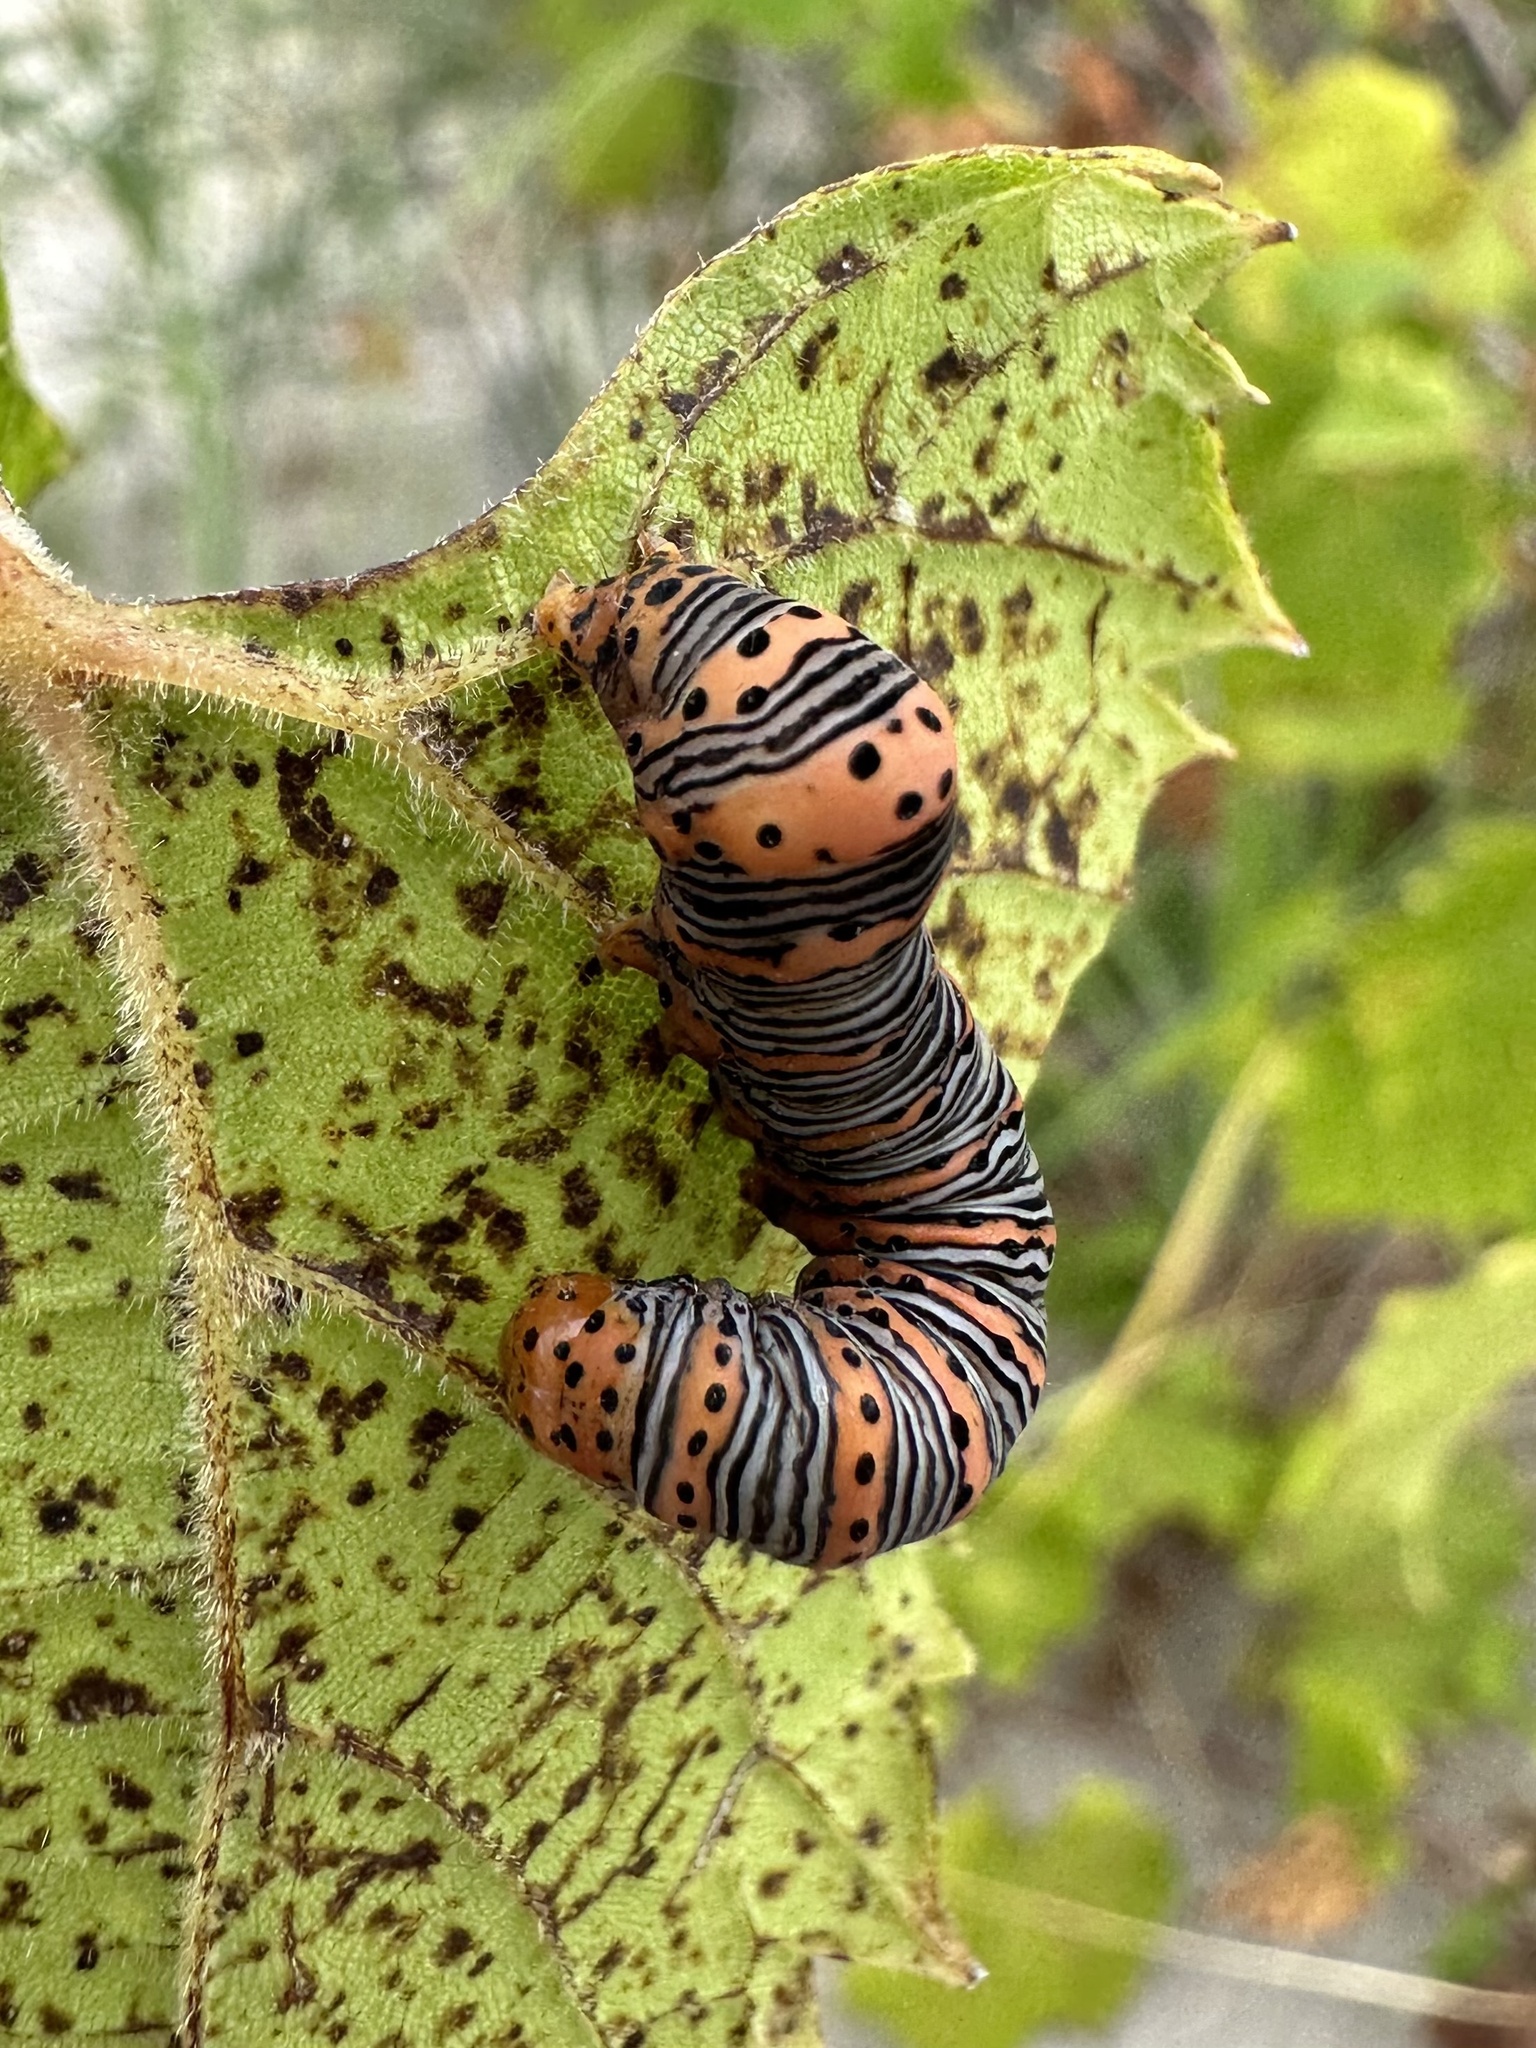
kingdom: Animalia
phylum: Arthropoda
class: Insecta
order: Lepidoptera
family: Noctuidae
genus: Eudryas
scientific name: Eudryas grata
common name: Beautiful wood-nymph
